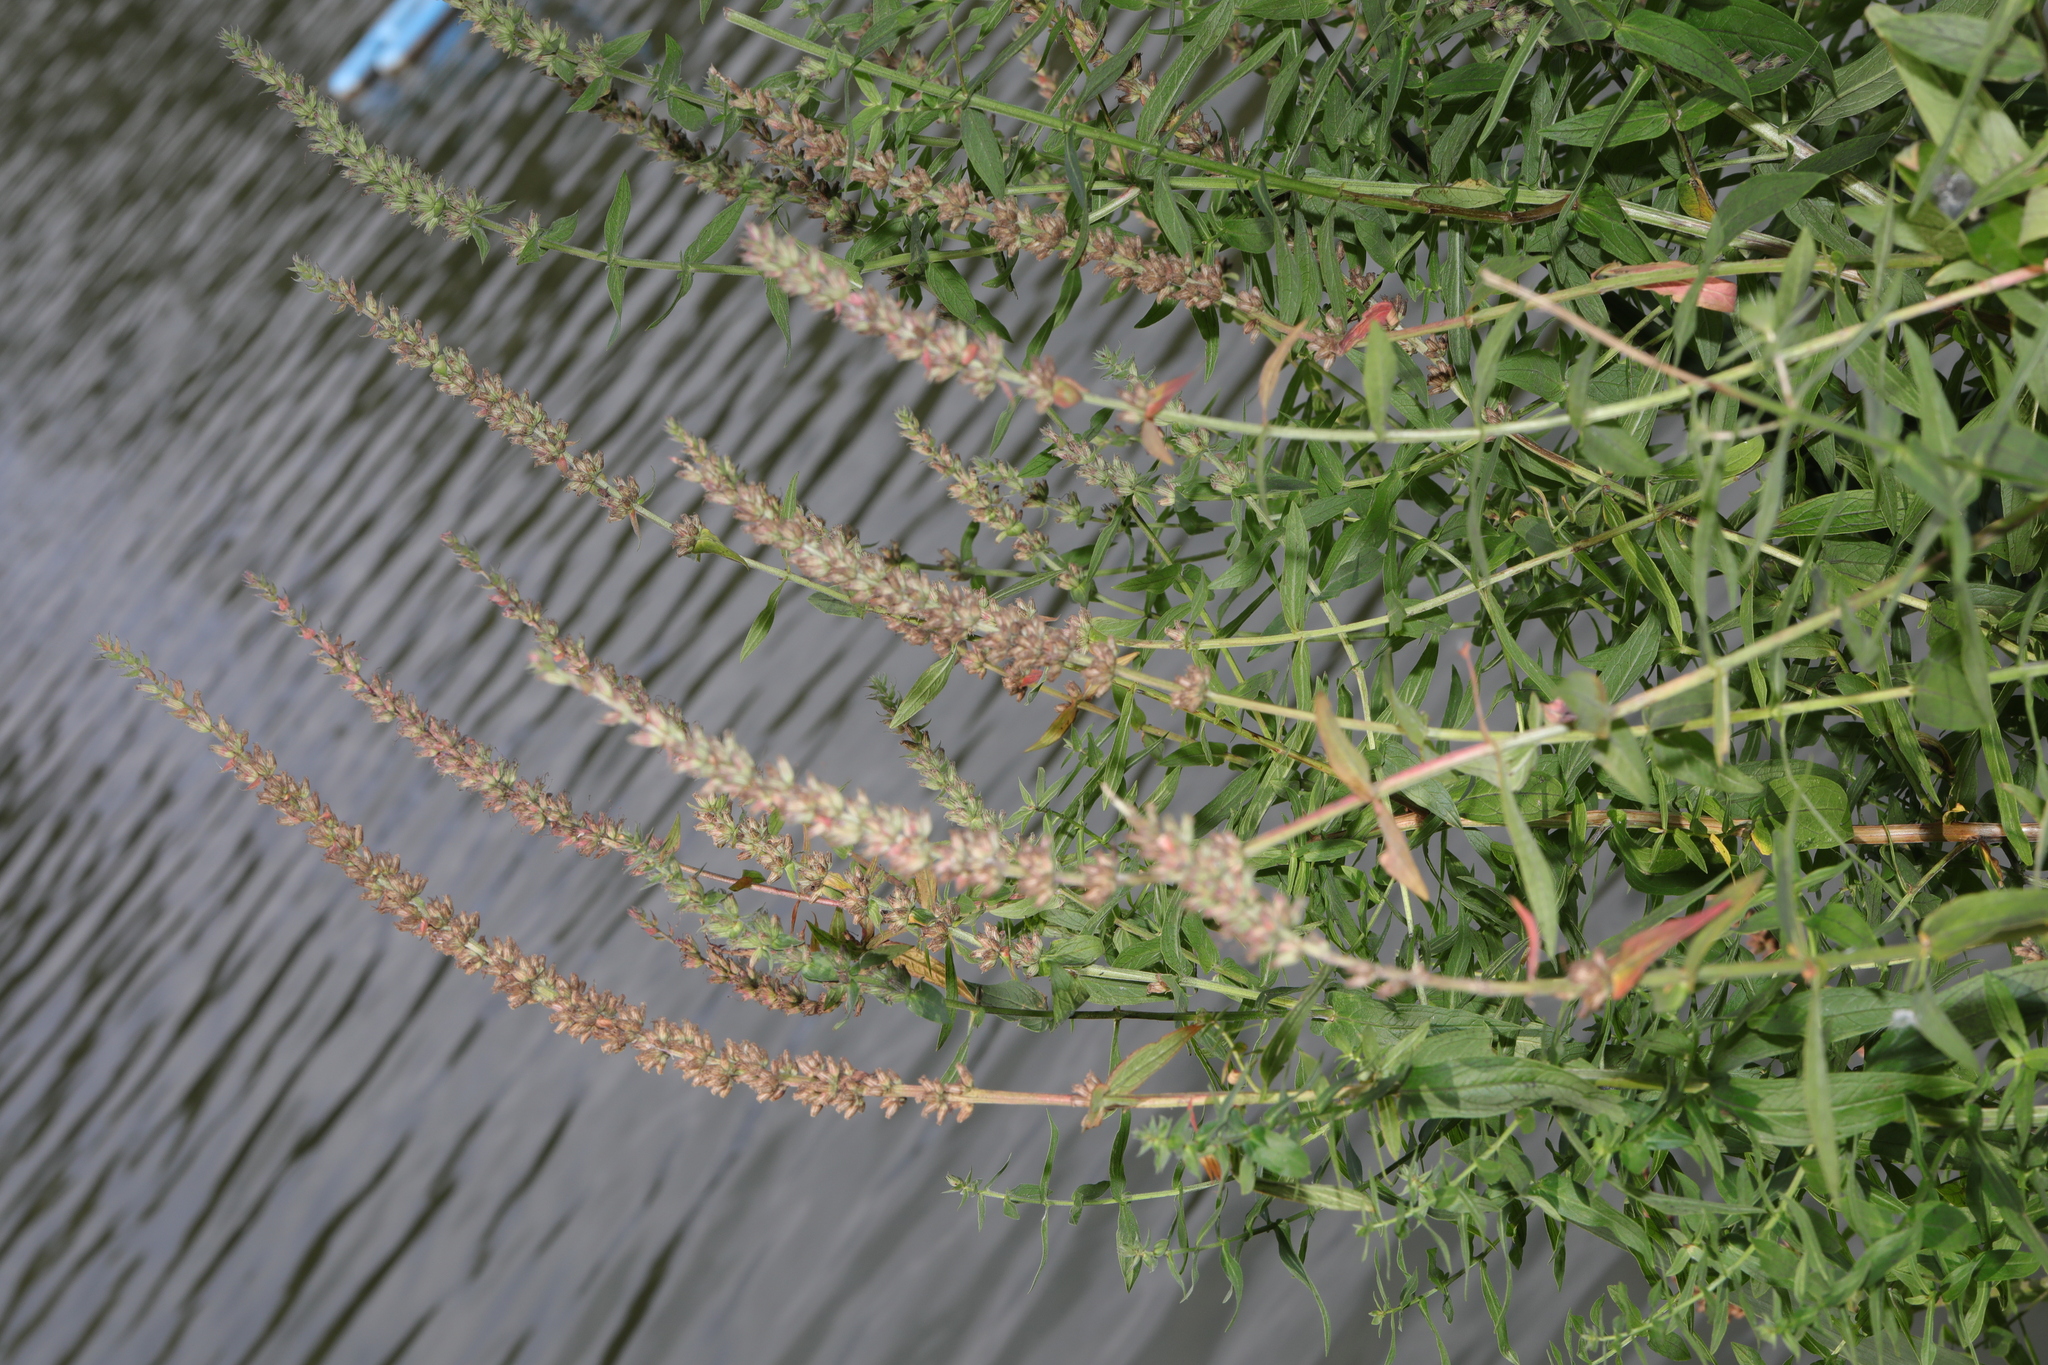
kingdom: Plantae
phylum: Tracheophyta
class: Magnoliopsida
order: Myrtales
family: Lythraceae
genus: Lythrum
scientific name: Lythrum salicaria
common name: Purple loosestrife
